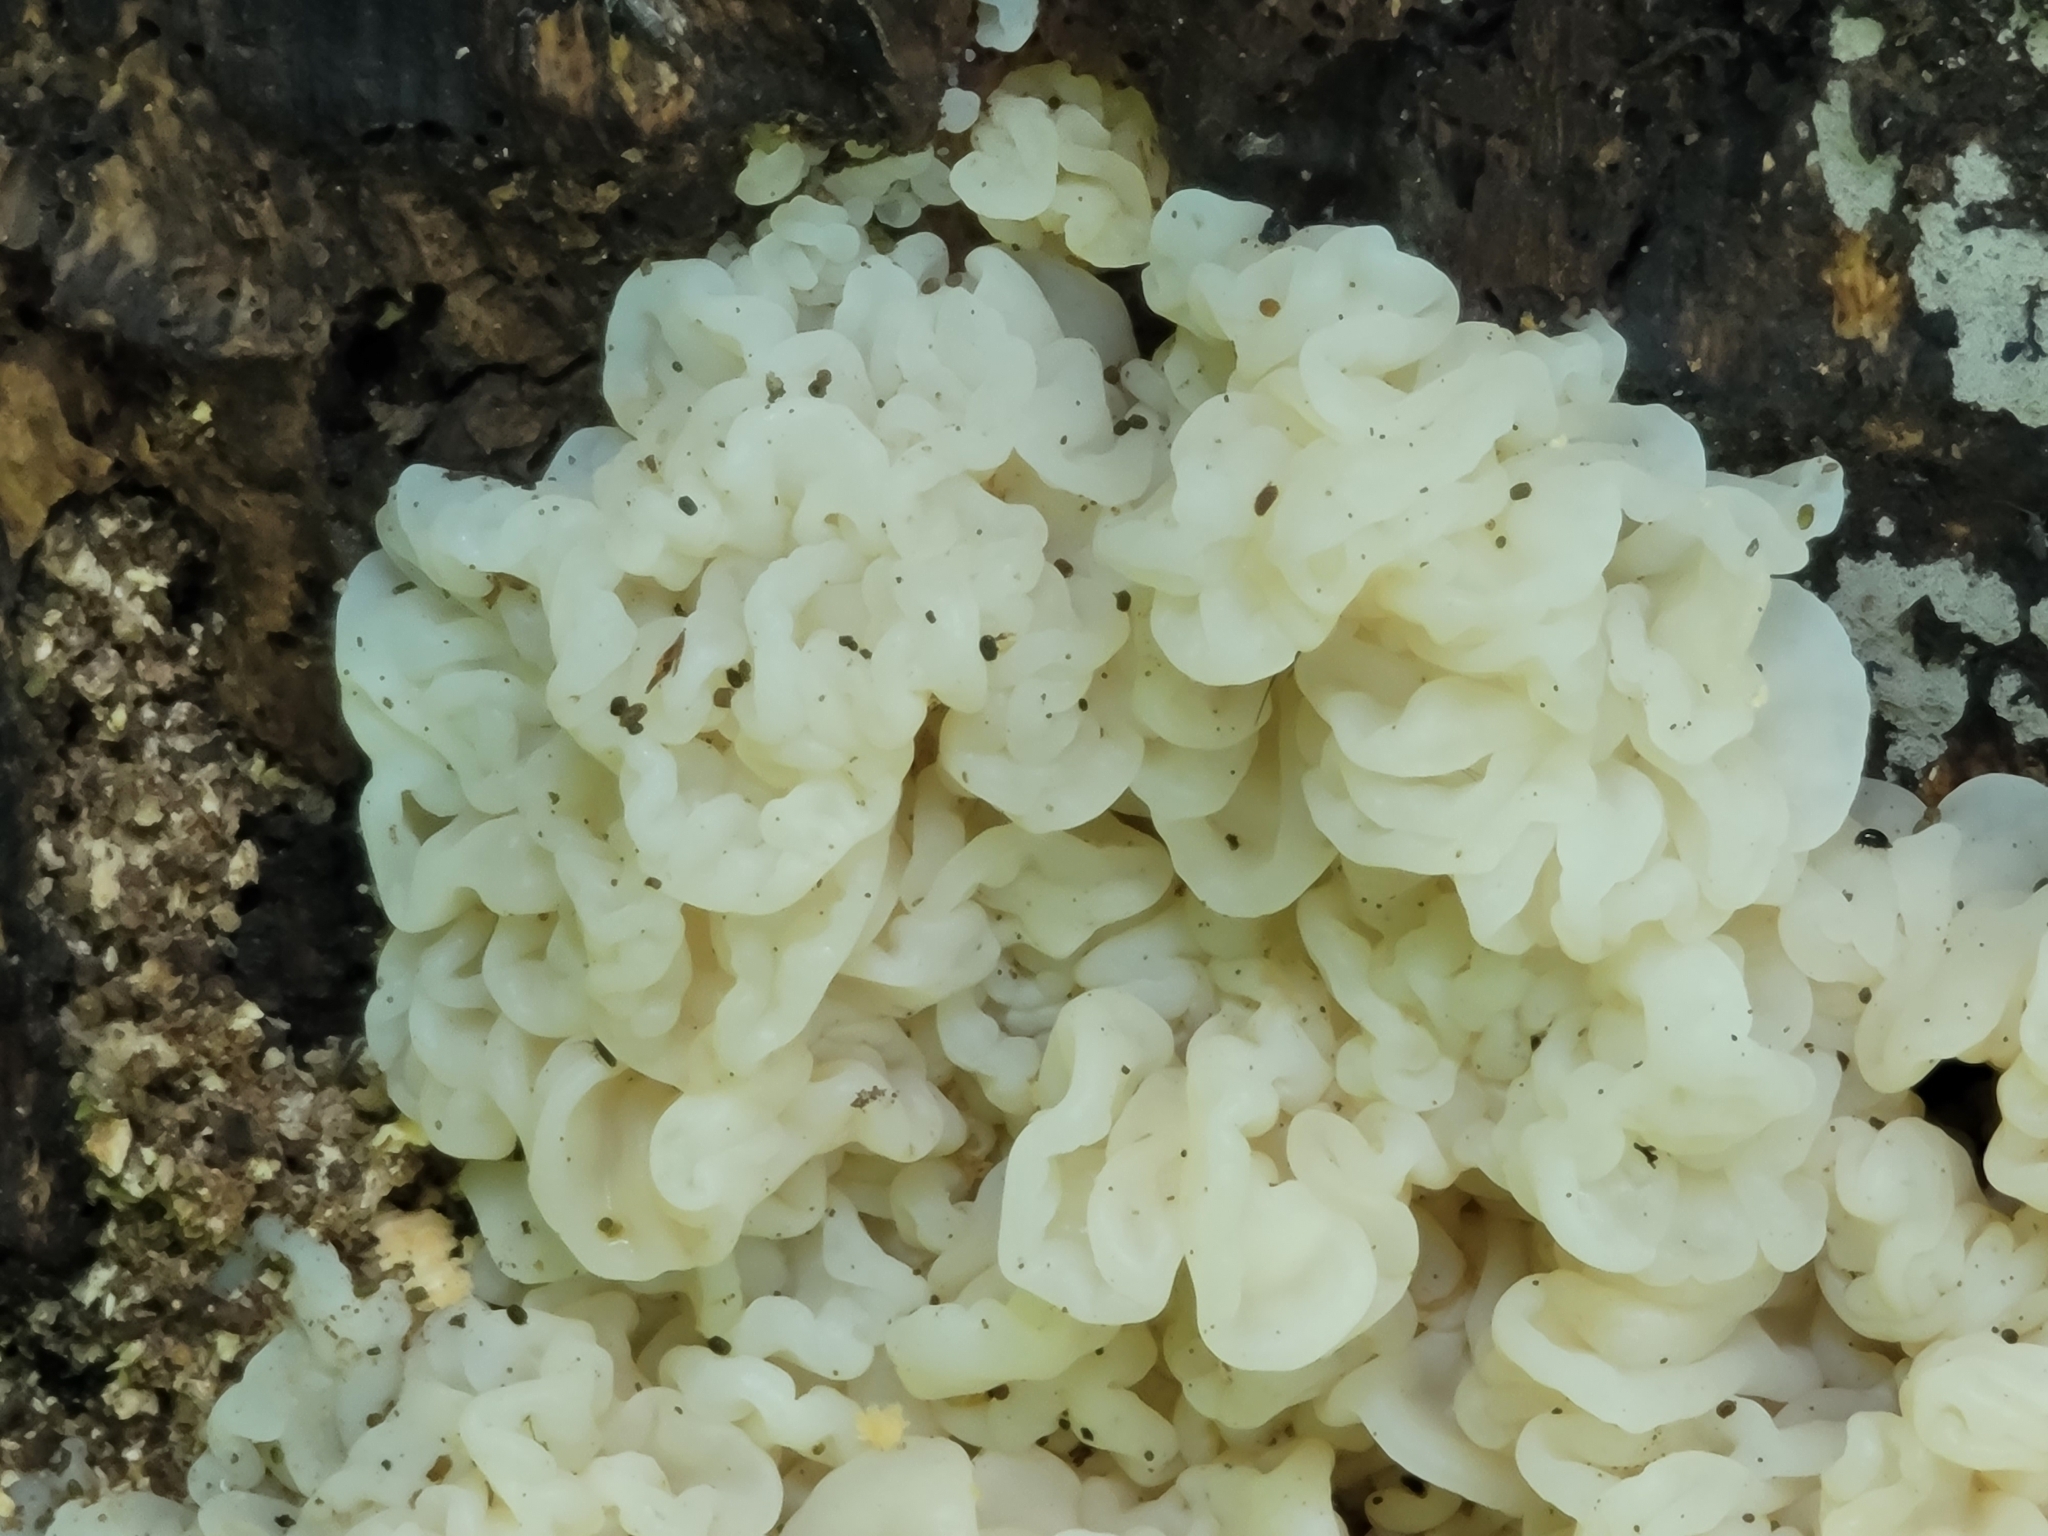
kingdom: Fungi
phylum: Basidiomycota
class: Agaricomycetes
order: Auriculariales
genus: Ductifera
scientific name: Ductifera pululahuana
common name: White jelly fungus
